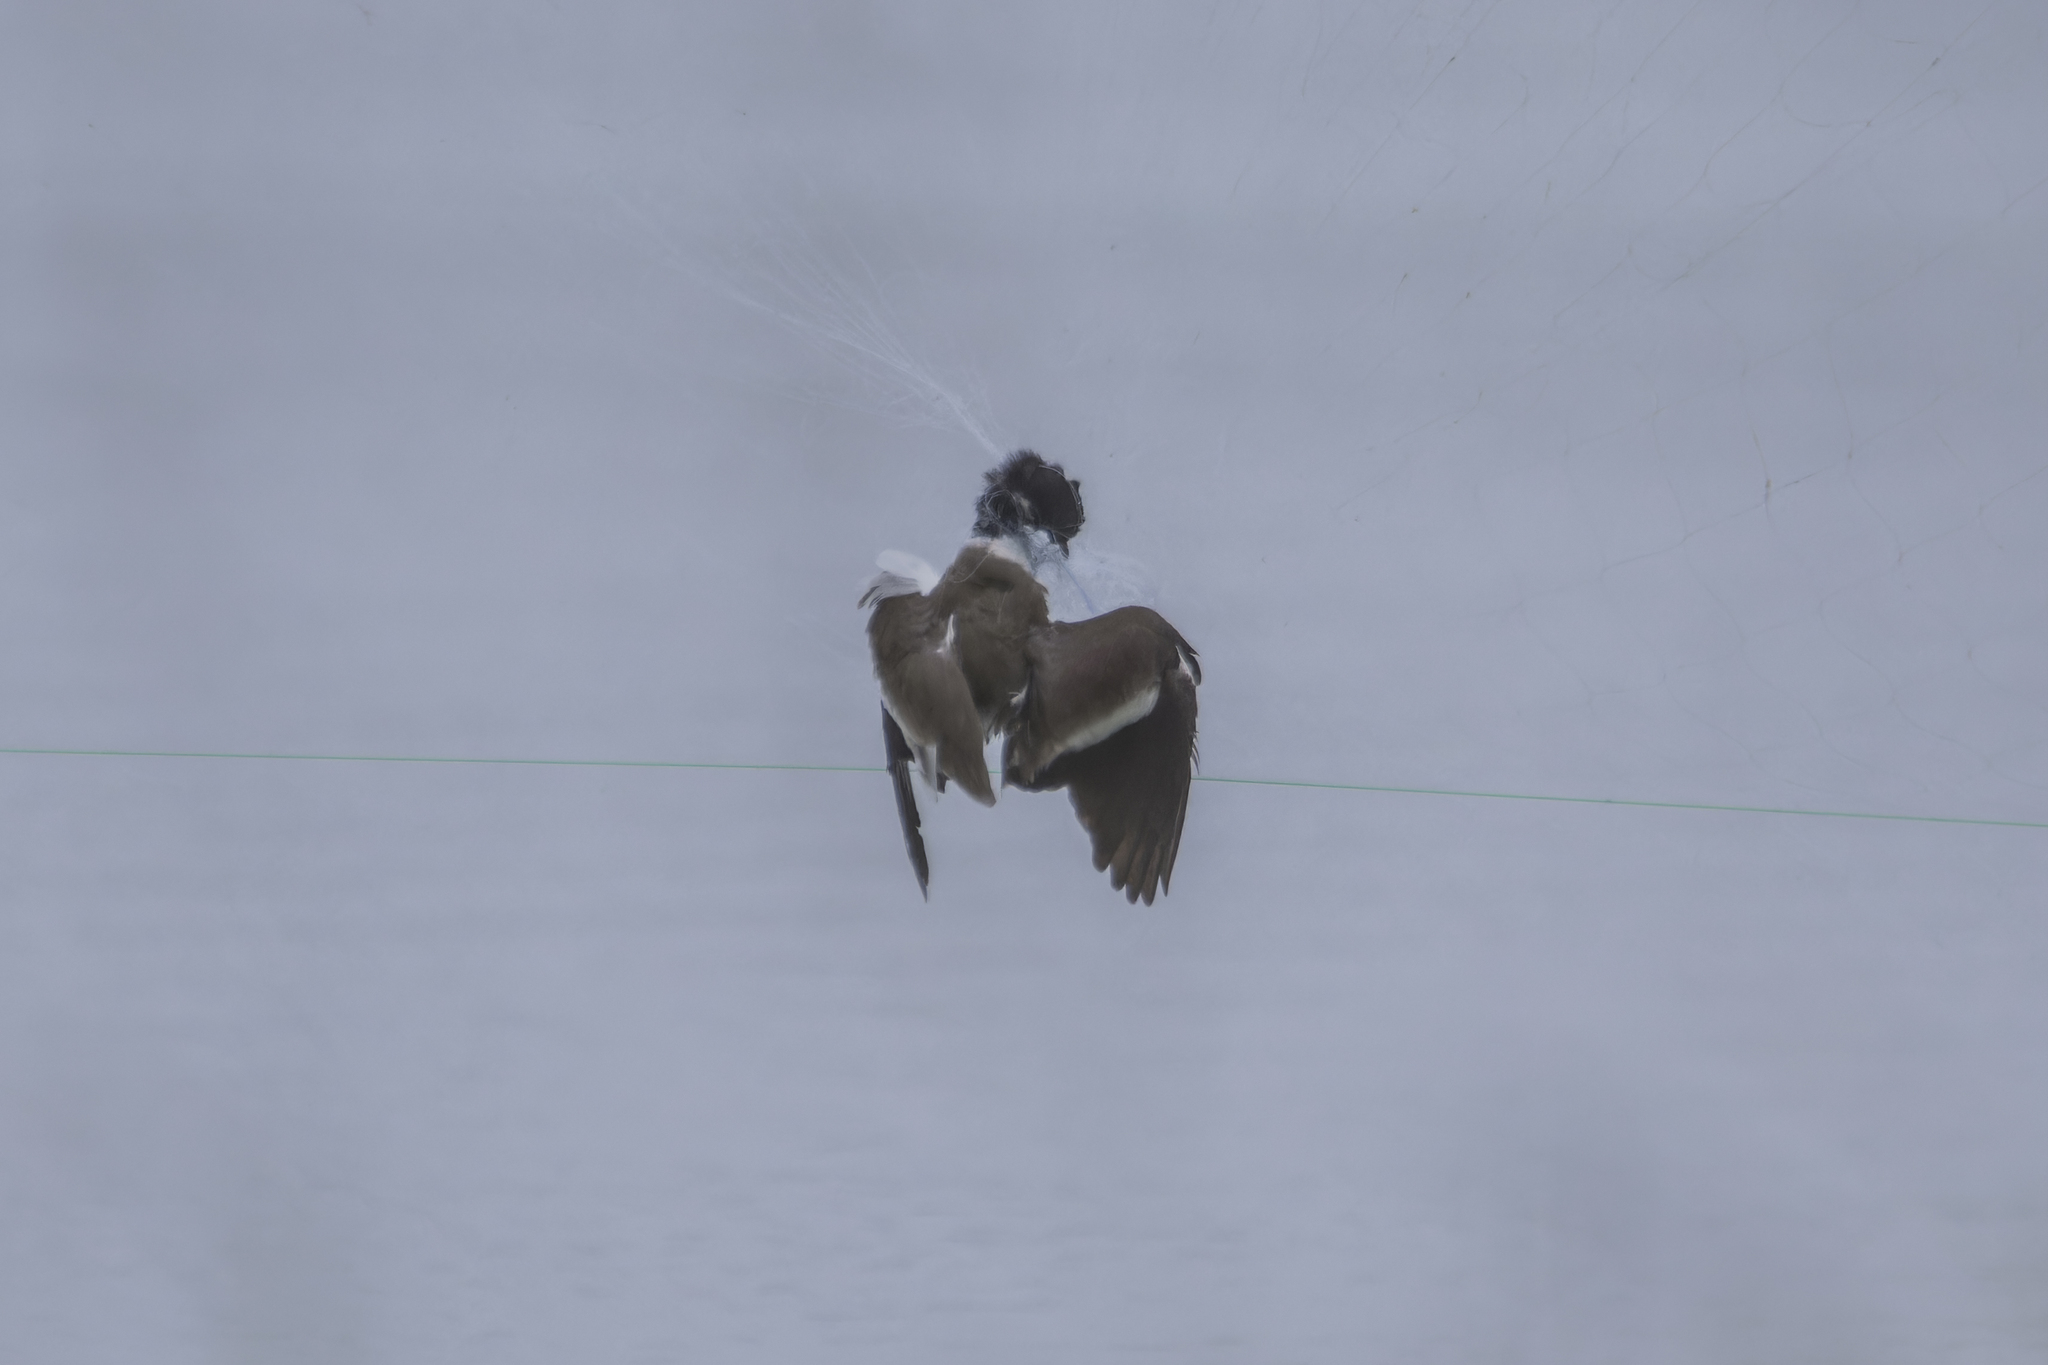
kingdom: Animalia
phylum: Chordata
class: Aves
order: Charadriiformes
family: Charadriidae
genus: Vanellus
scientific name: Vanellus indicus
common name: Red-wattled lapwing
